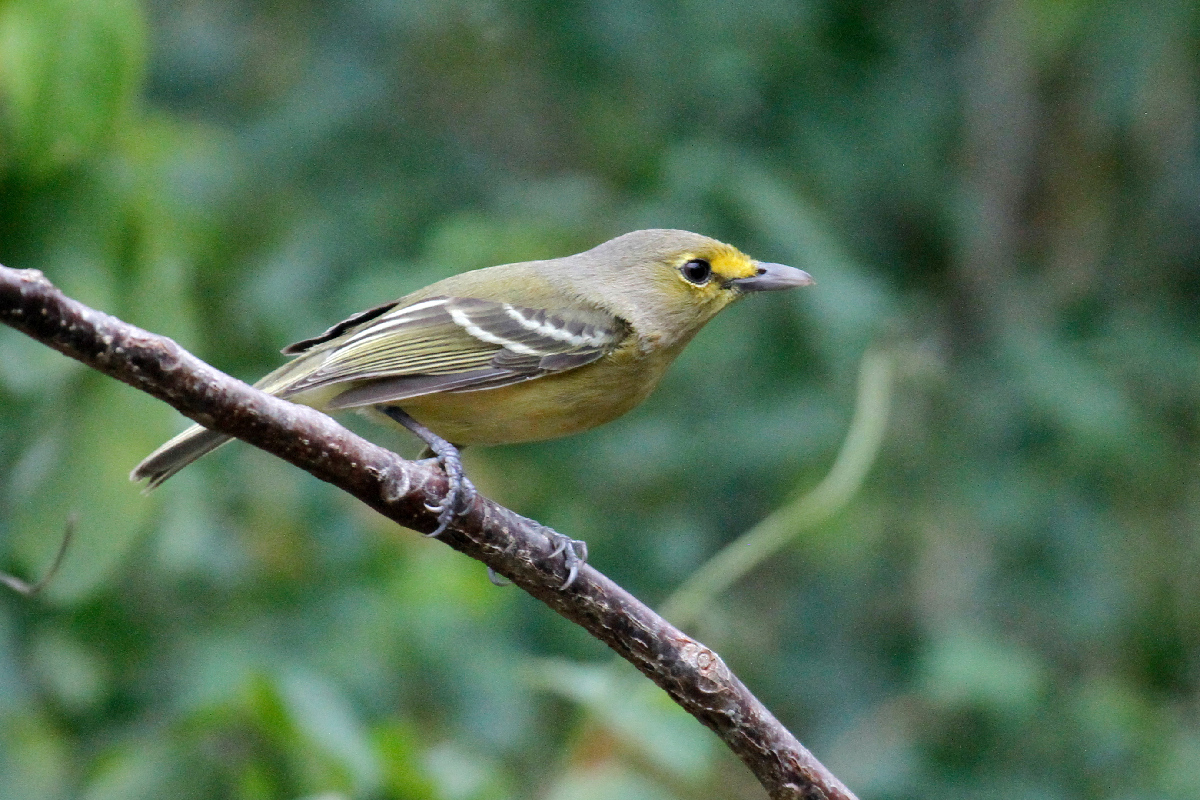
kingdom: Animalia
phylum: Chordata
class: Aves
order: Passeriformes
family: Vireonidae
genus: Vireo
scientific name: Vireo crassirostris
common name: Thick-billed vireo
